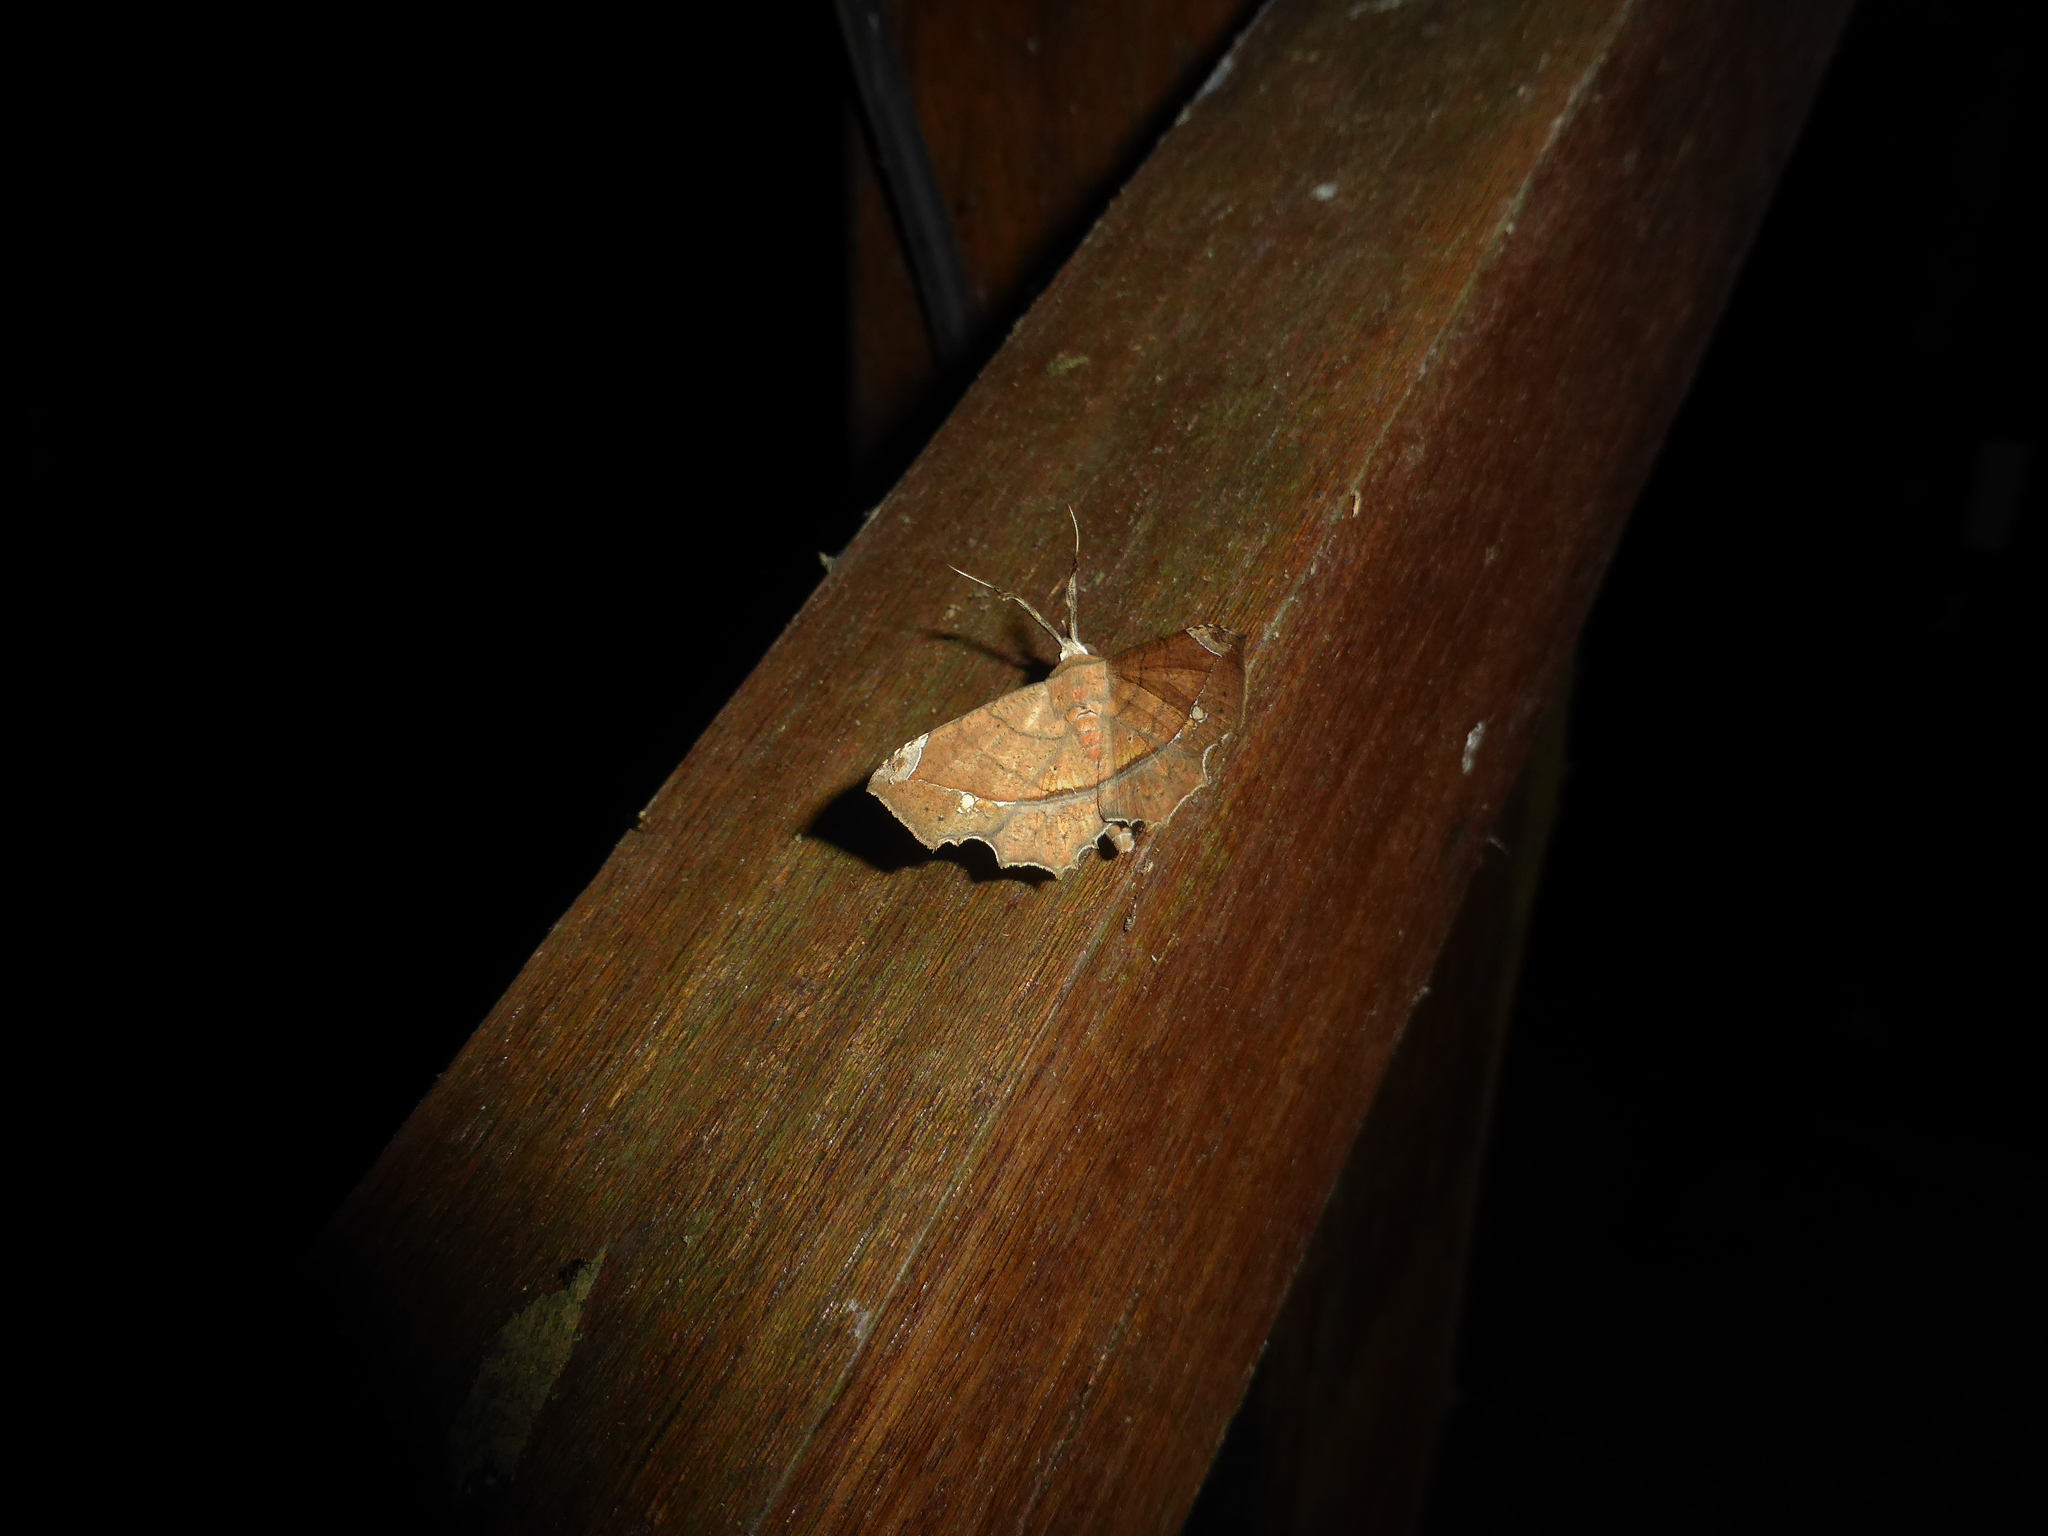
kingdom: Animalia
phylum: Arthropoda
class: Insecta
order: Lepidoptera
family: Erebidae
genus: Syllectra
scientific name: Syllectra erycata
